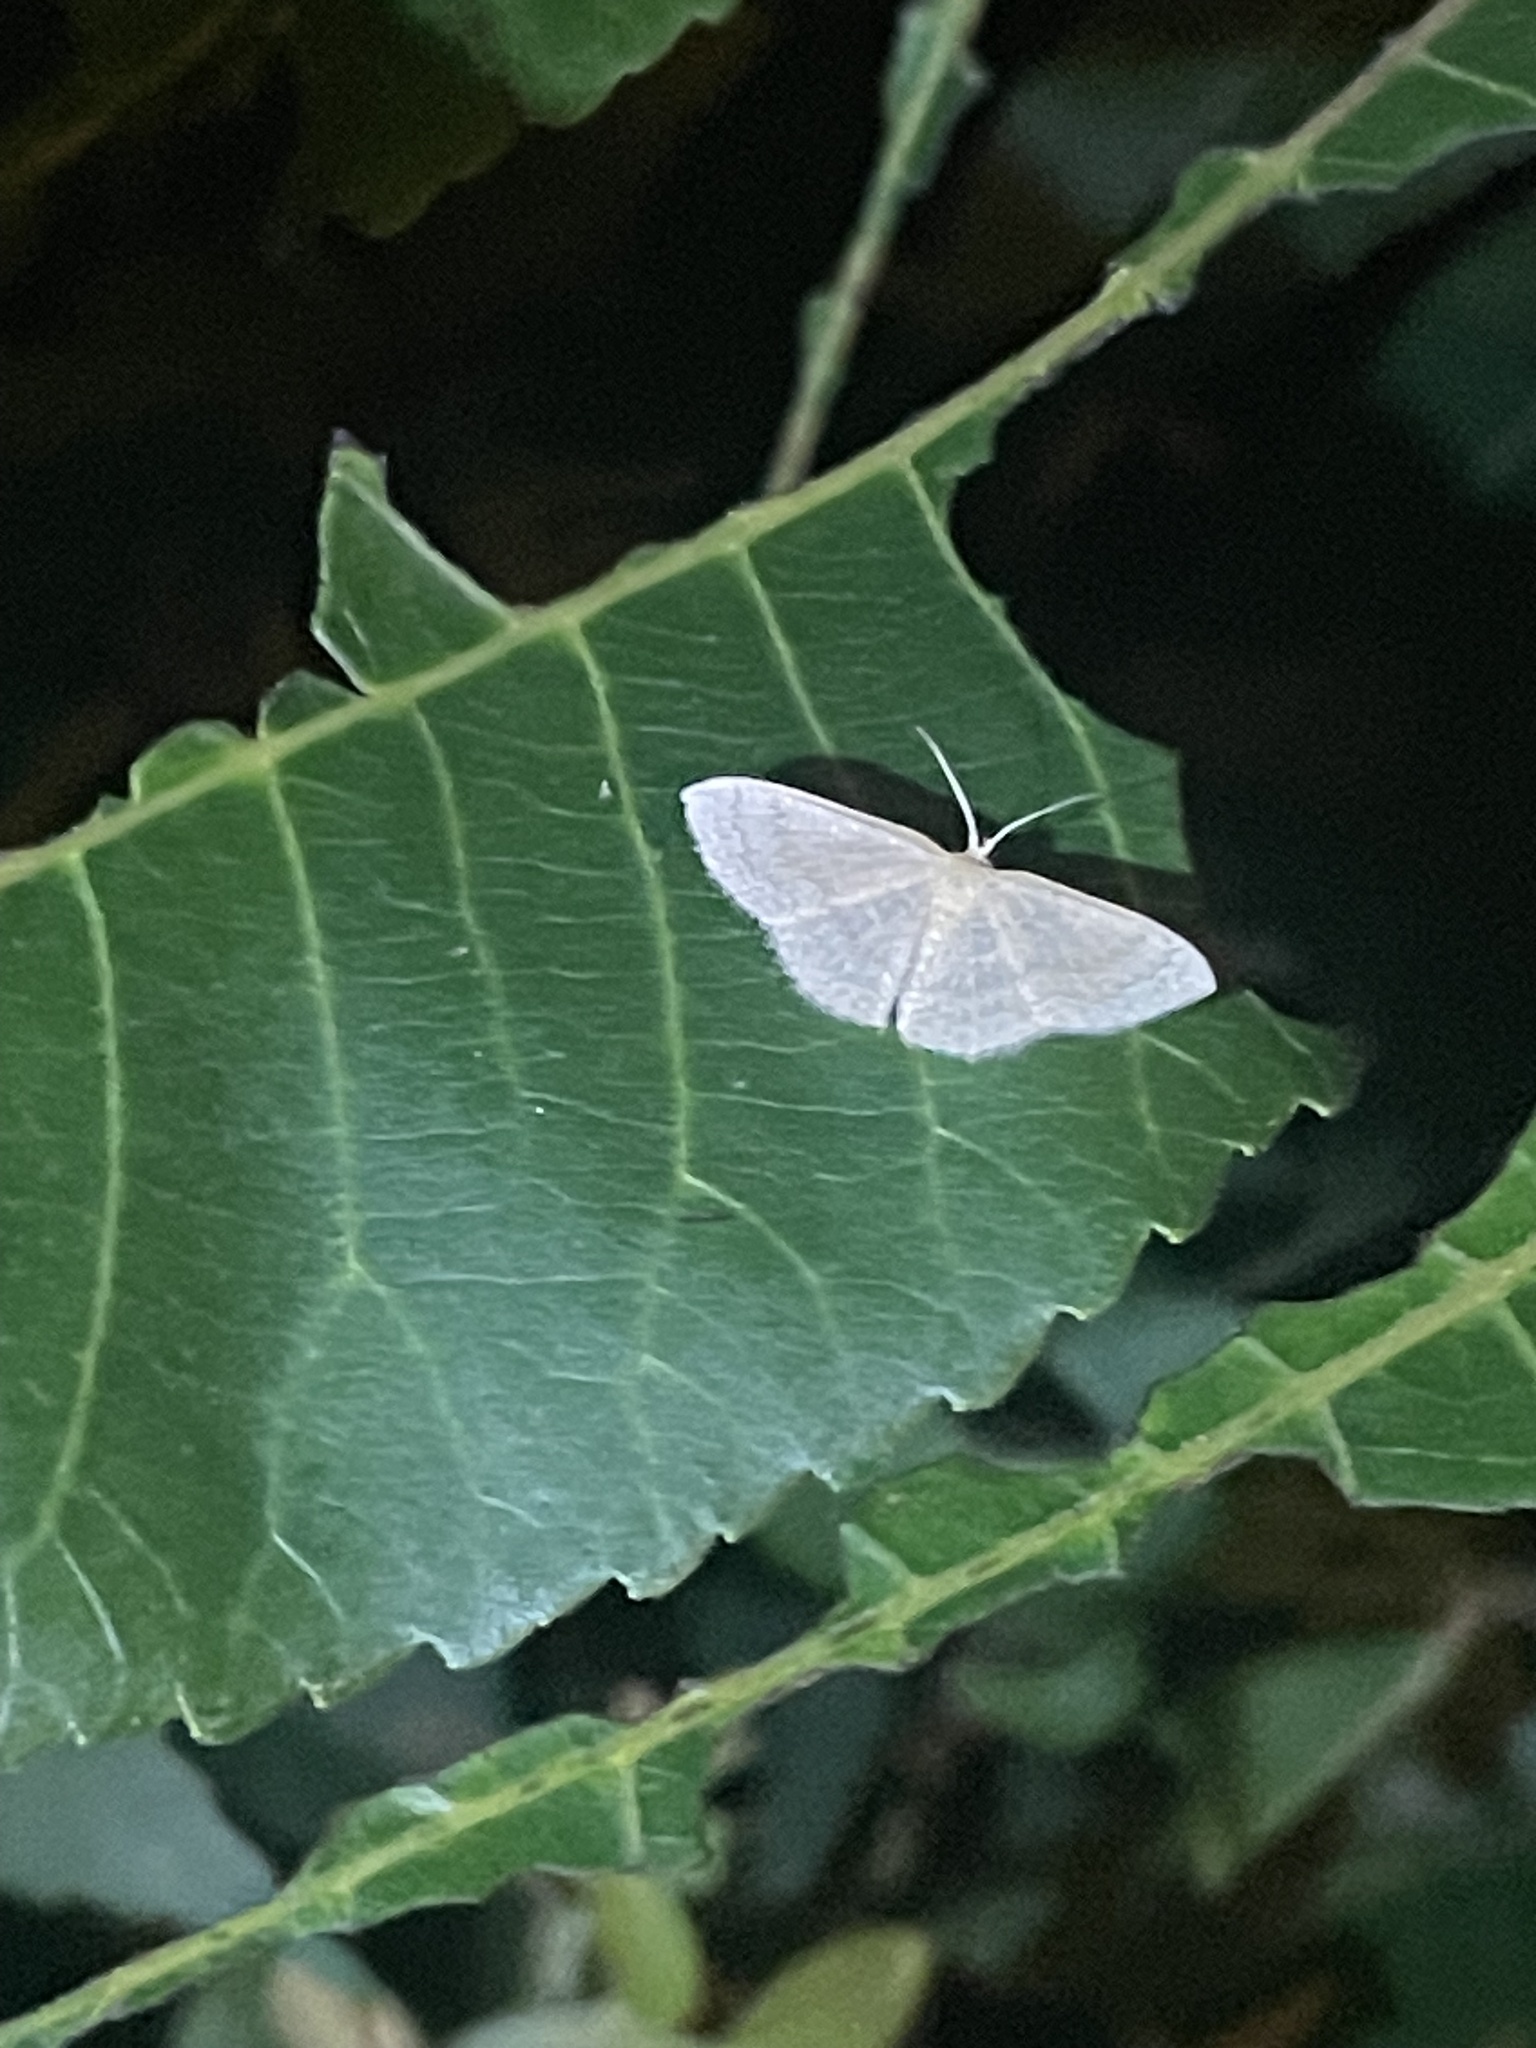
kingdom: Animalia
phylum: Arthropoda
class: Insecta
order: Lepidoptera
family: Geometridae
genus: Pleuroprucha
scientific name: Pleuroprucha insulsaria
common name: Common tan wave
